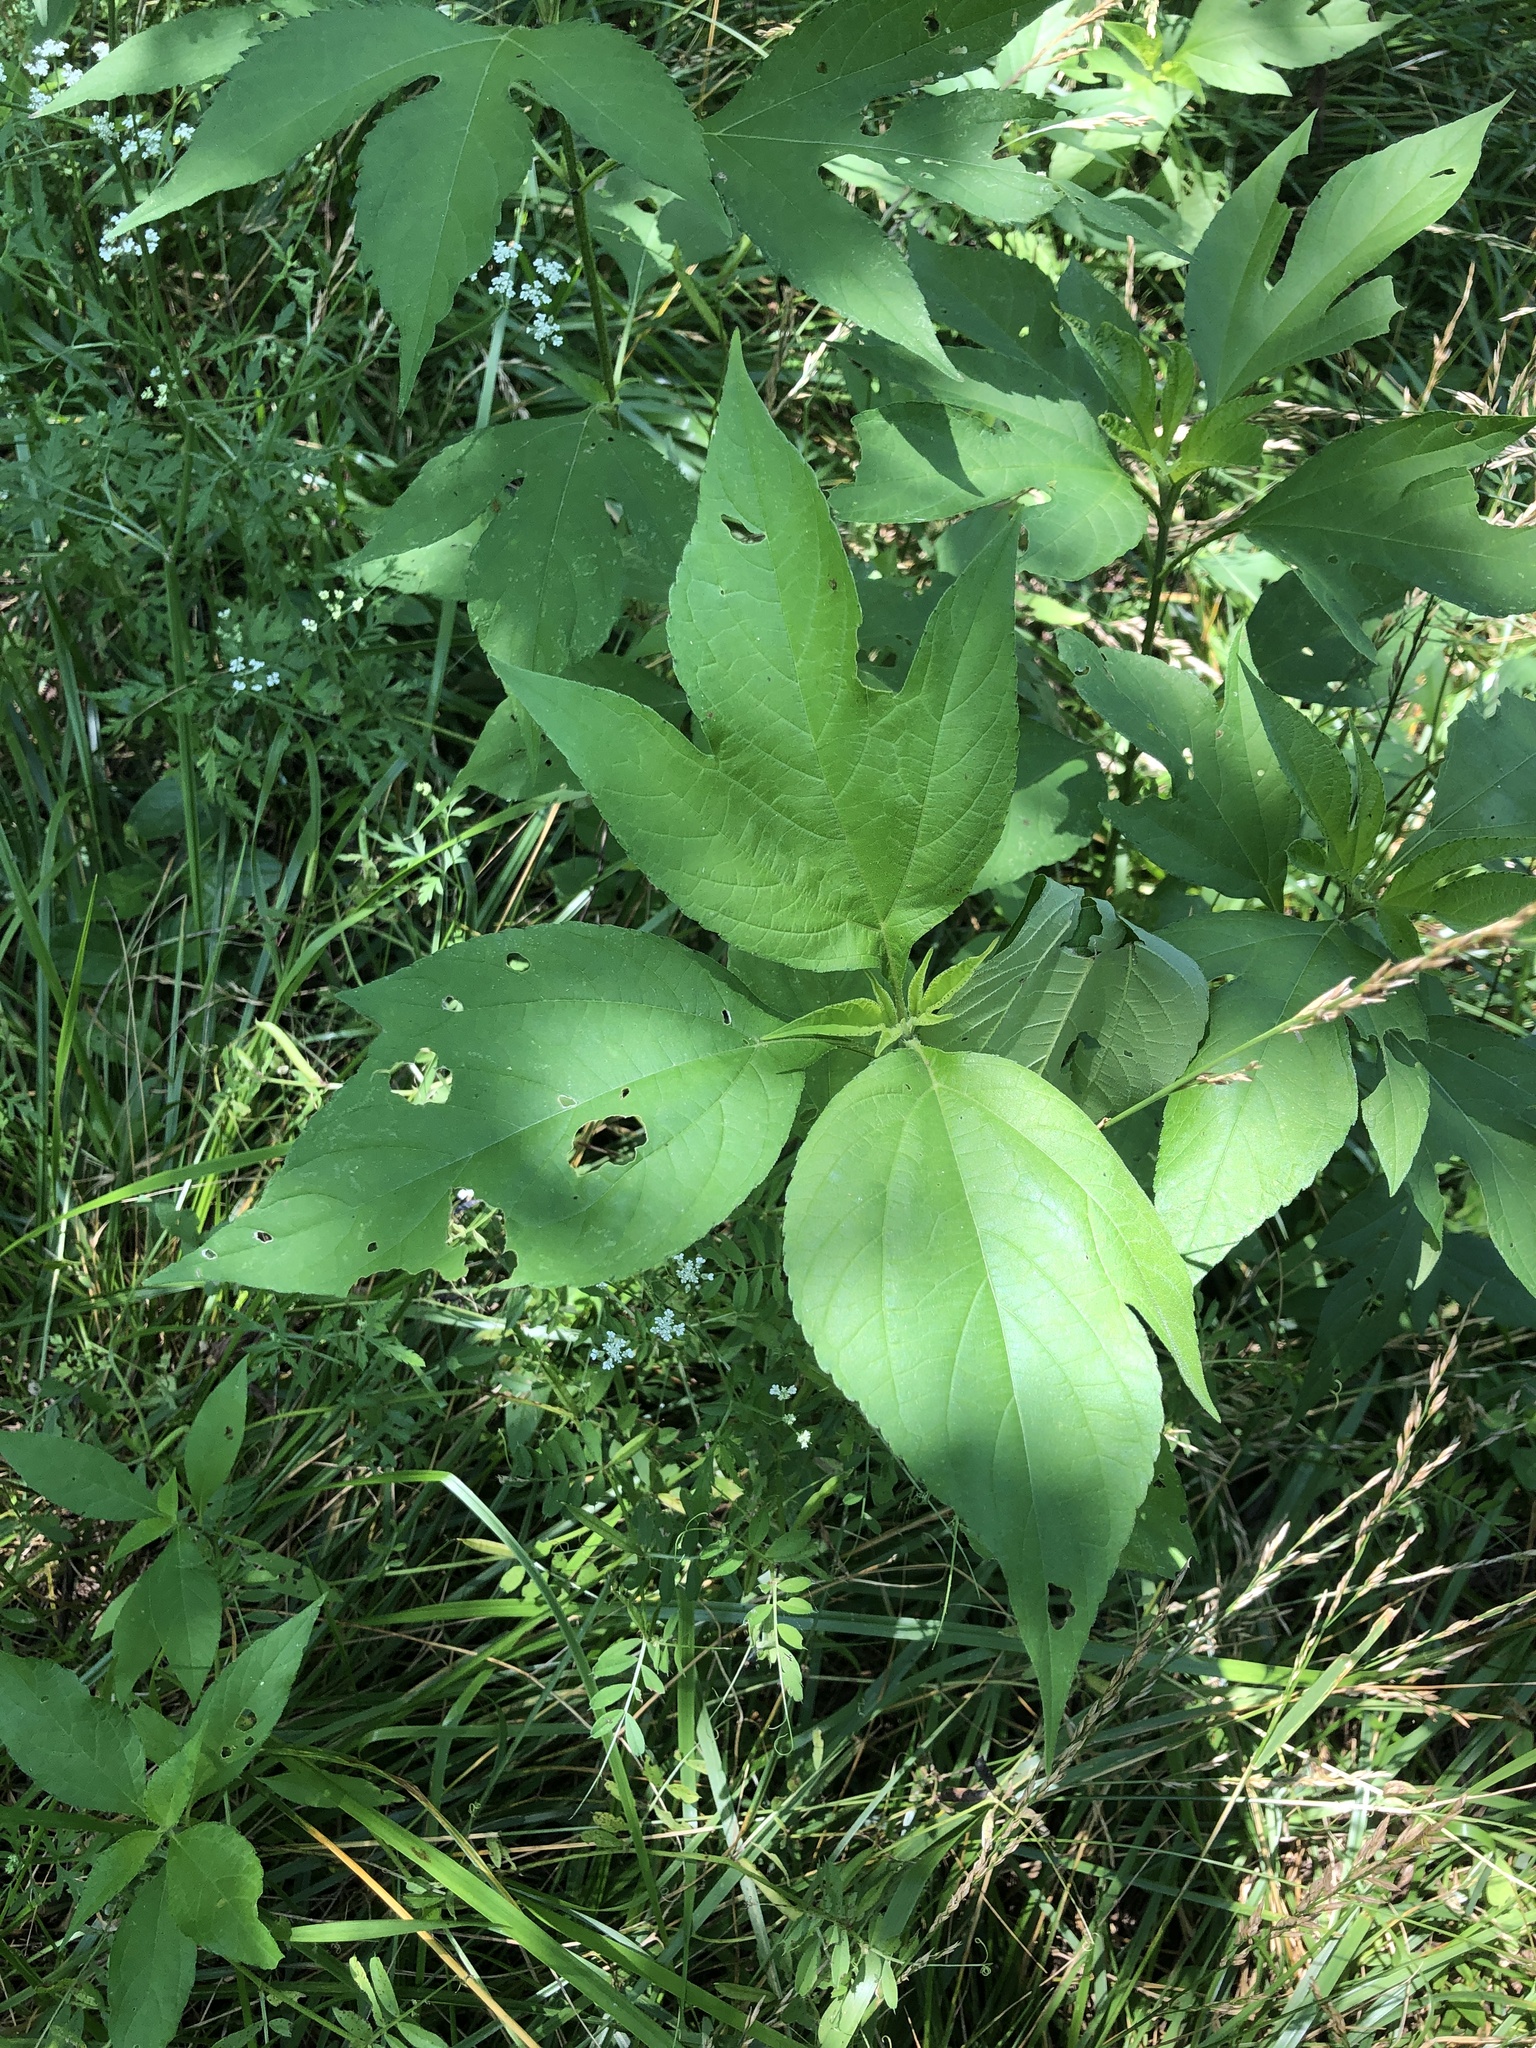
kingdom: Plantae
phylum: Tracheophyta
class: Magnoliopsida
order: Asterales
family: Asteraceae
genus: Ambrosia
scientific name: Ambrosia trifida
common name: Giant ragweed
